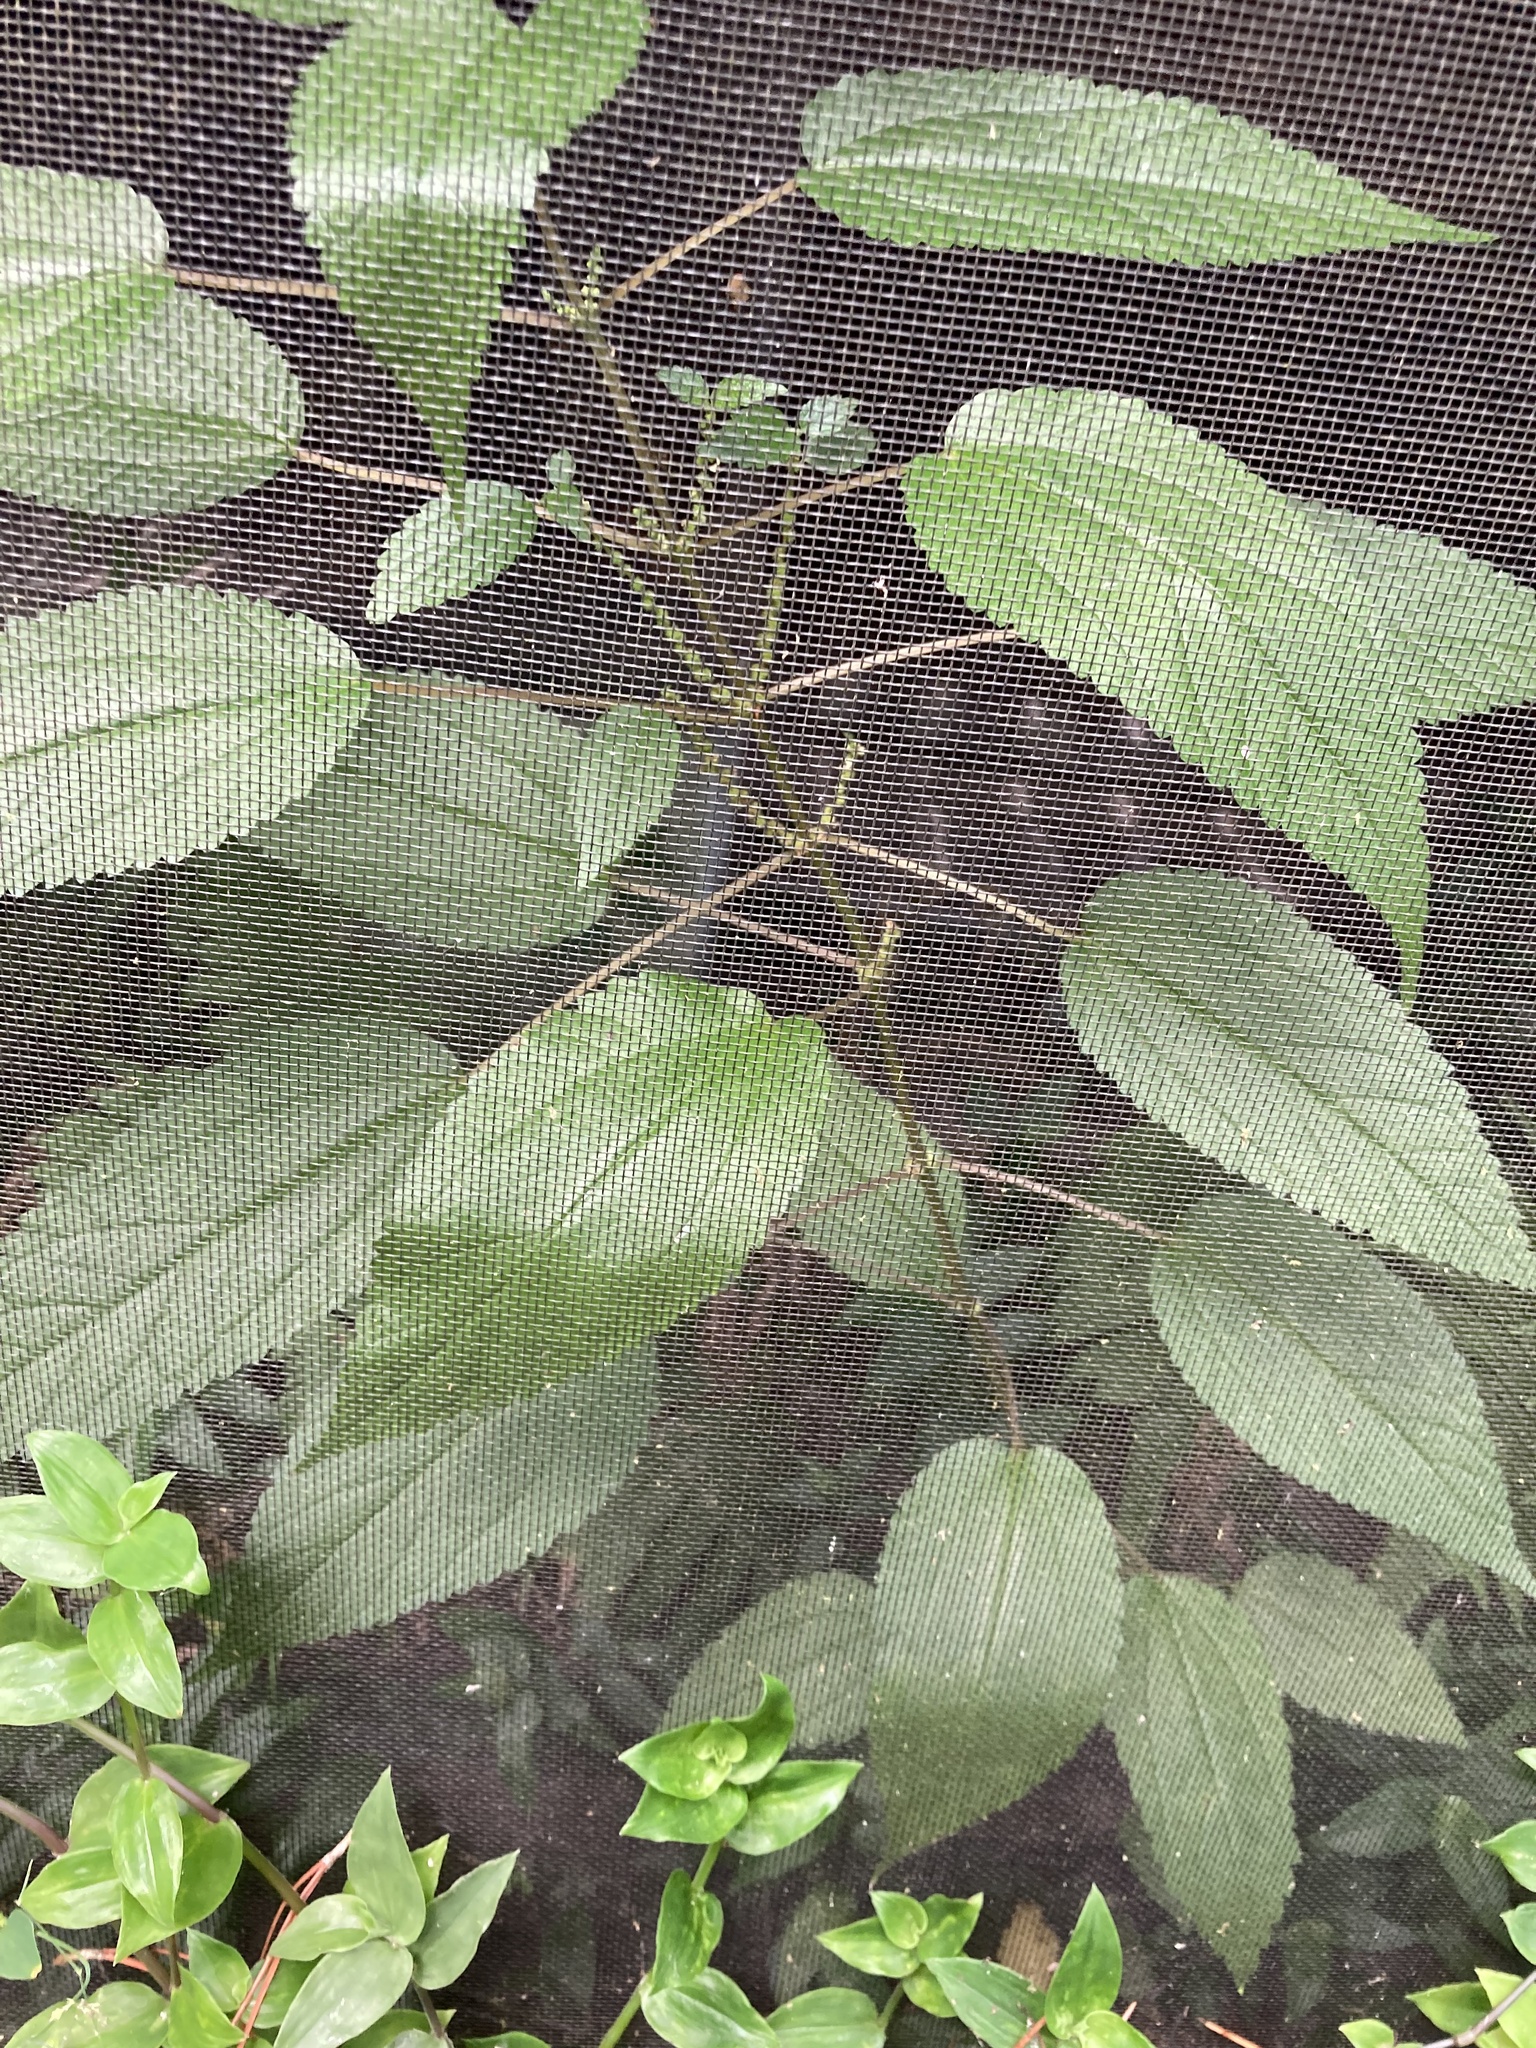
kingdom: Plantae
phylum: Tracheophyta
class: Magnoliopsida
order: Rosales
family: Urticaceae
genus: Boehmeria
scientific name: Boehmeria cylindrica
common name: Bog-hemp
